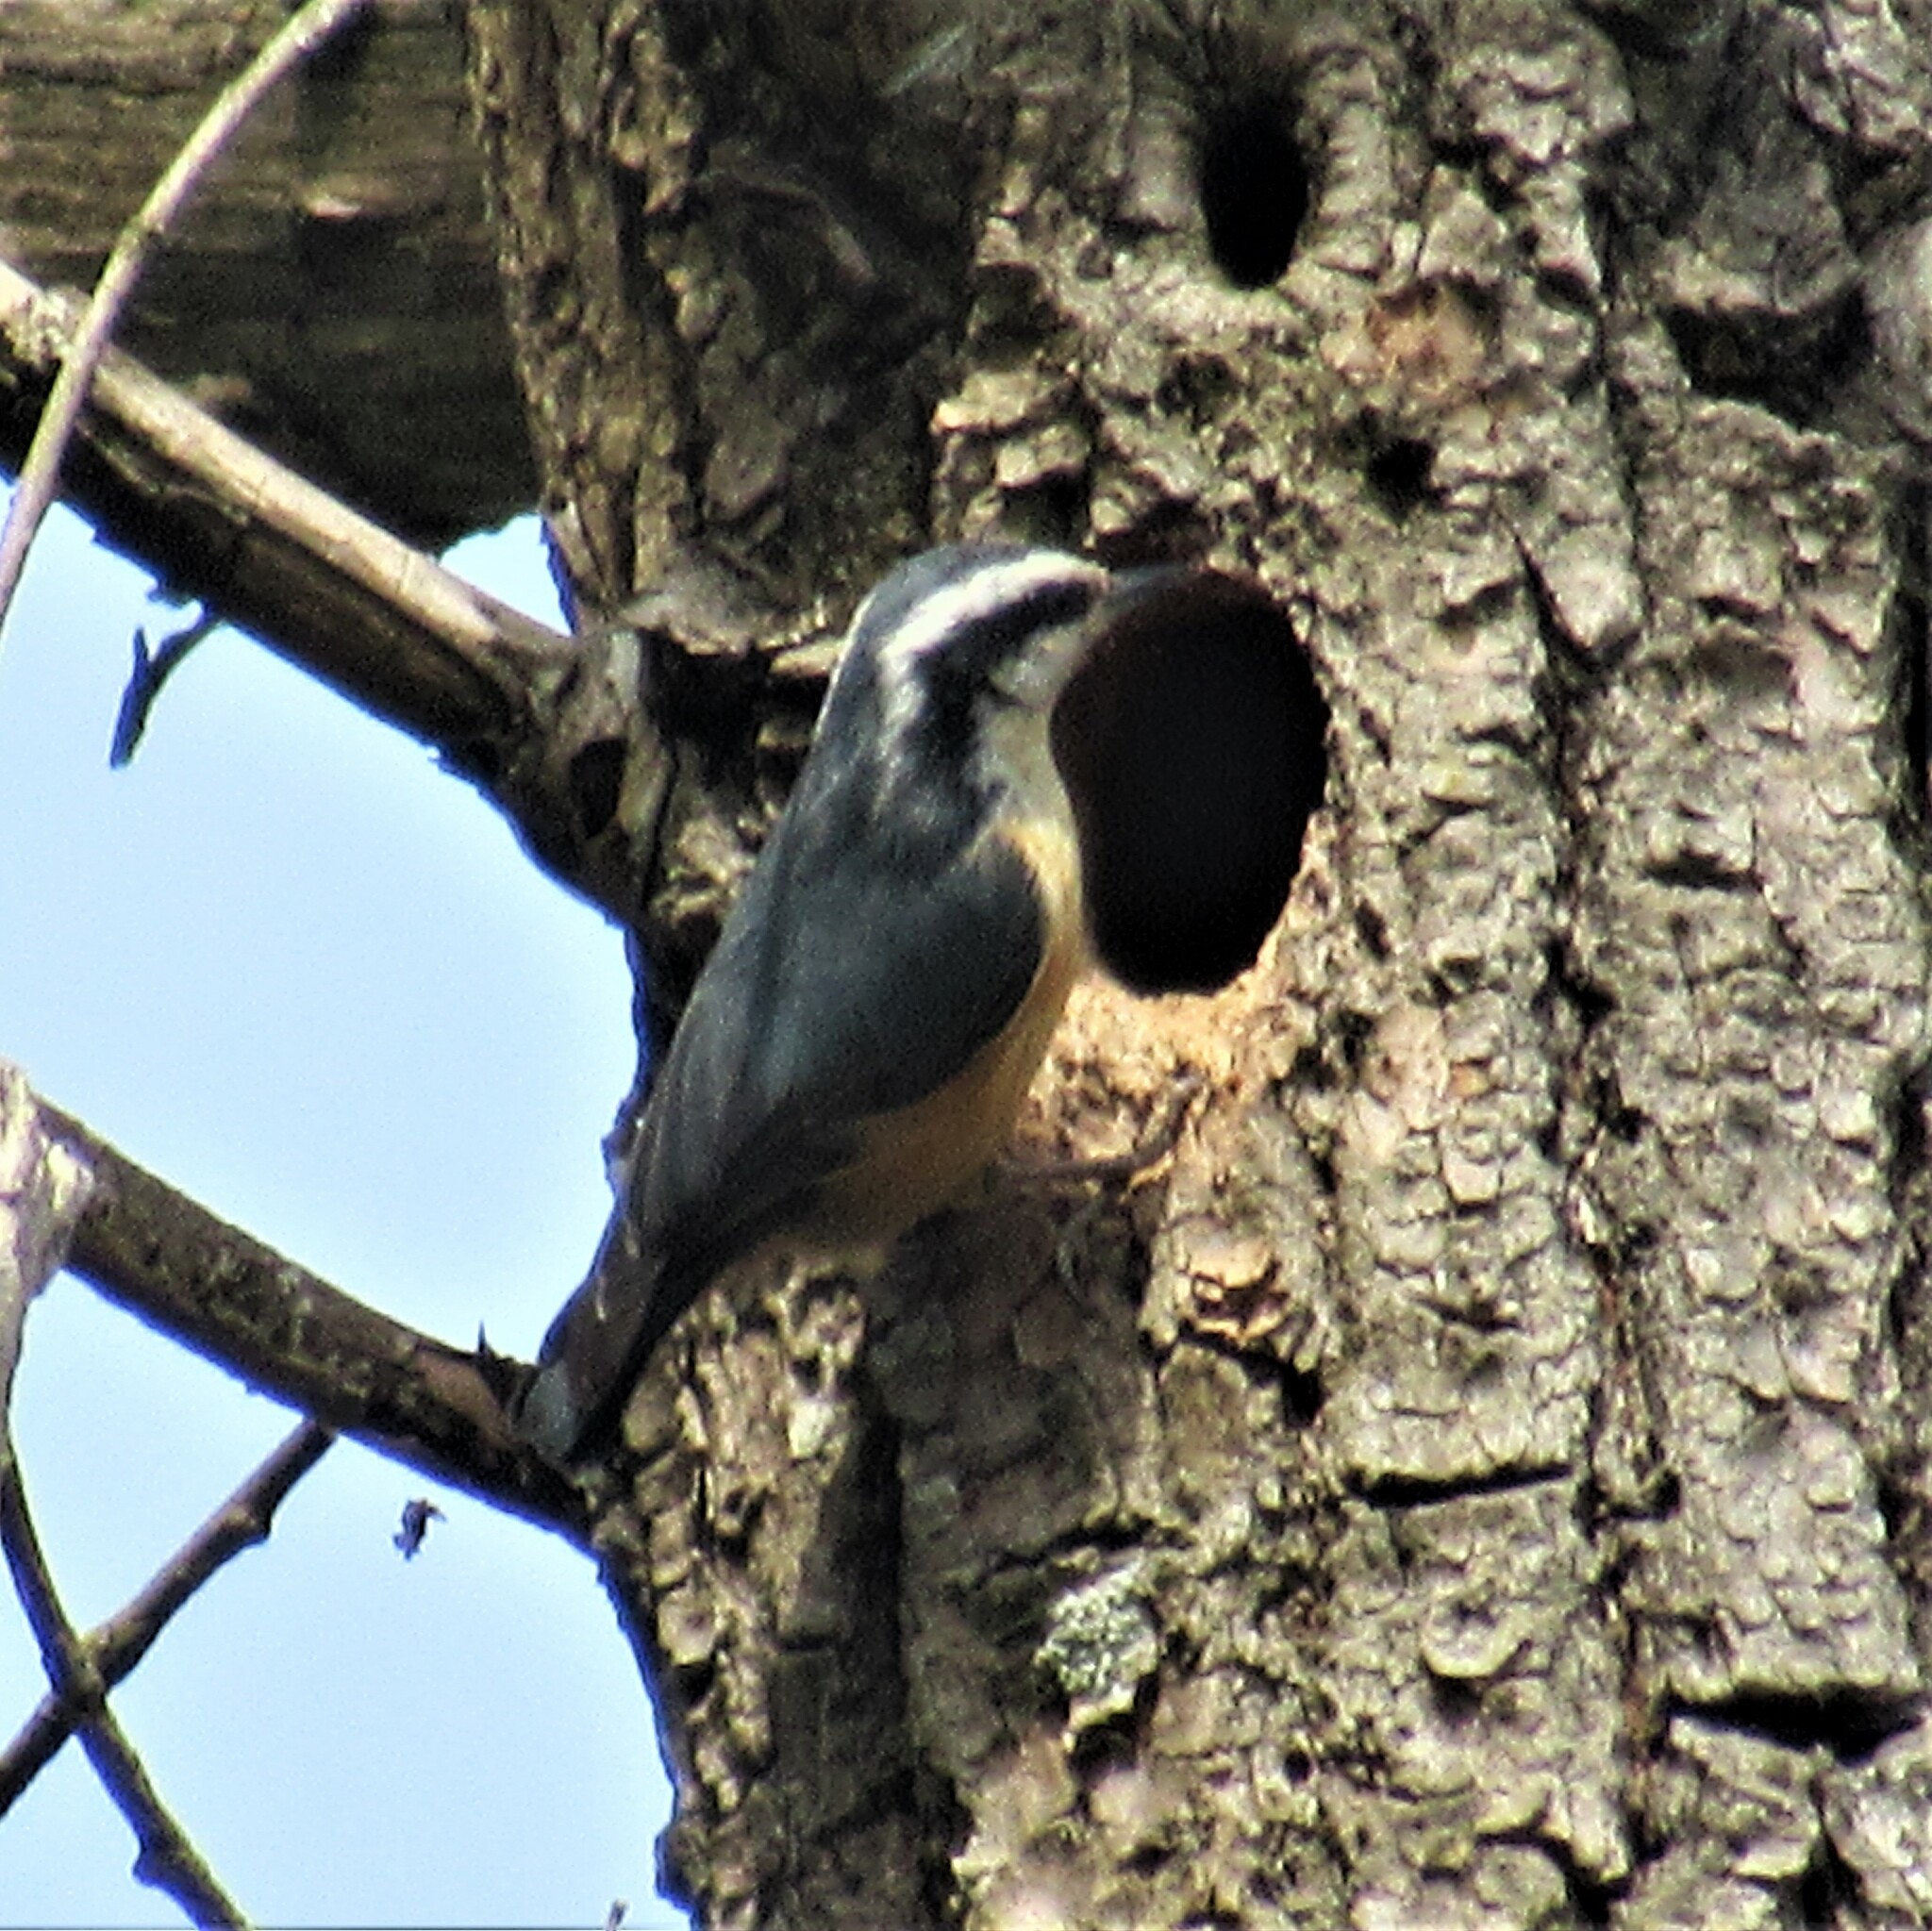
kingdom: Animalia
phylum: Chordata
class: Aves
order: Passeriformes
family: Sittidae
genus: Sitta
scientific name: Sitta canadensis
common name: Red-breasted nuthatch
